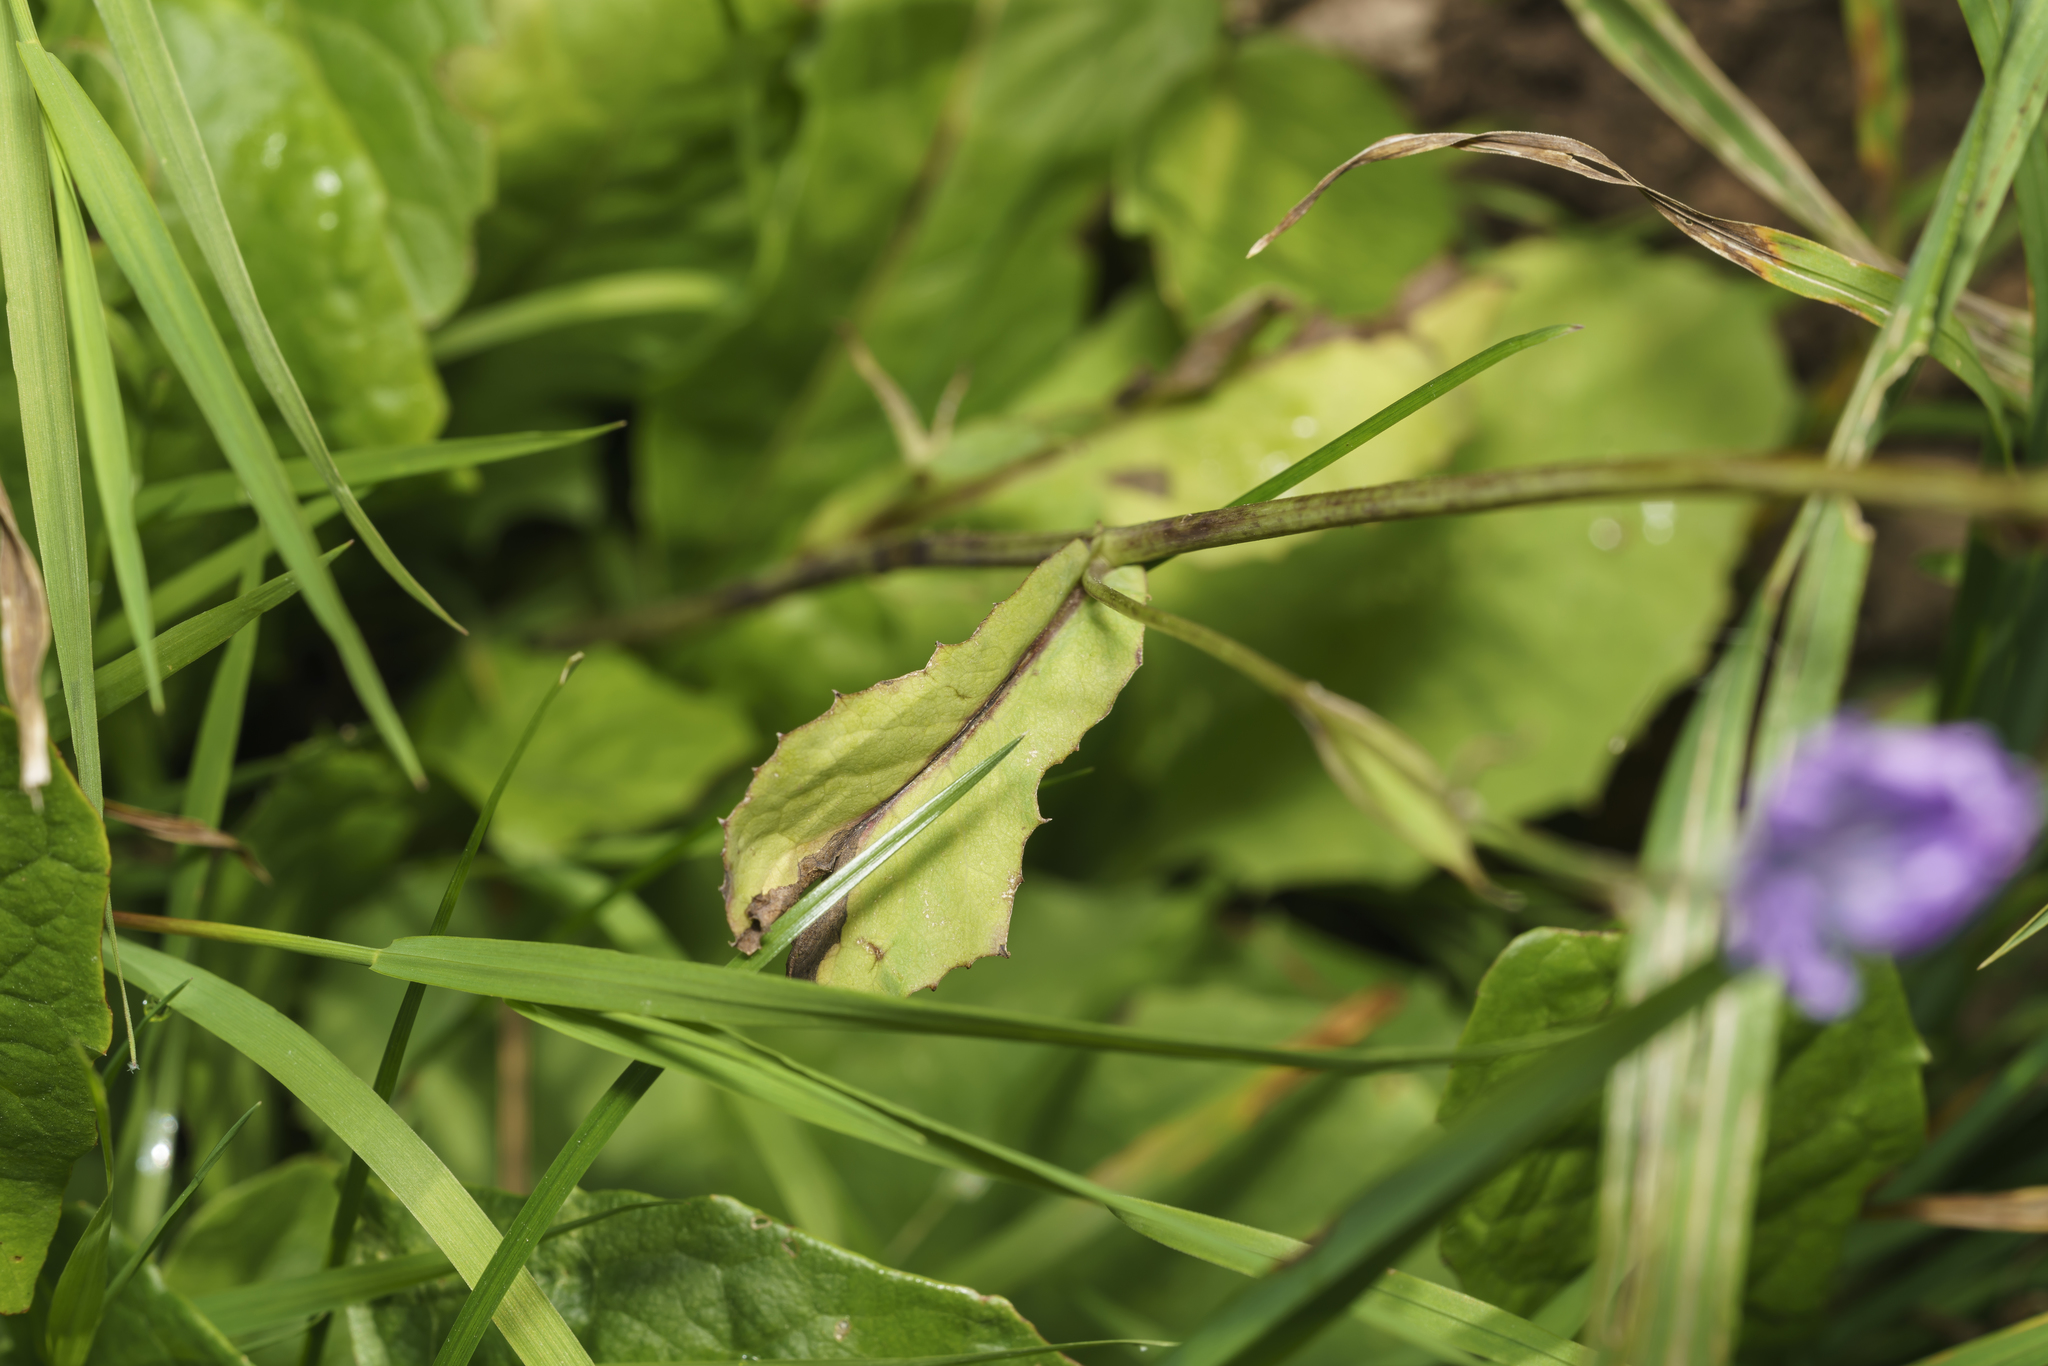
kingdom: Plantae
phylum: Tracheophyta
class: Magnoliopsida
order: Asterales
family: Asteraceae
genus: Lactuca
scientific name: Lactuca perennis
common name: Mountain lettuce
